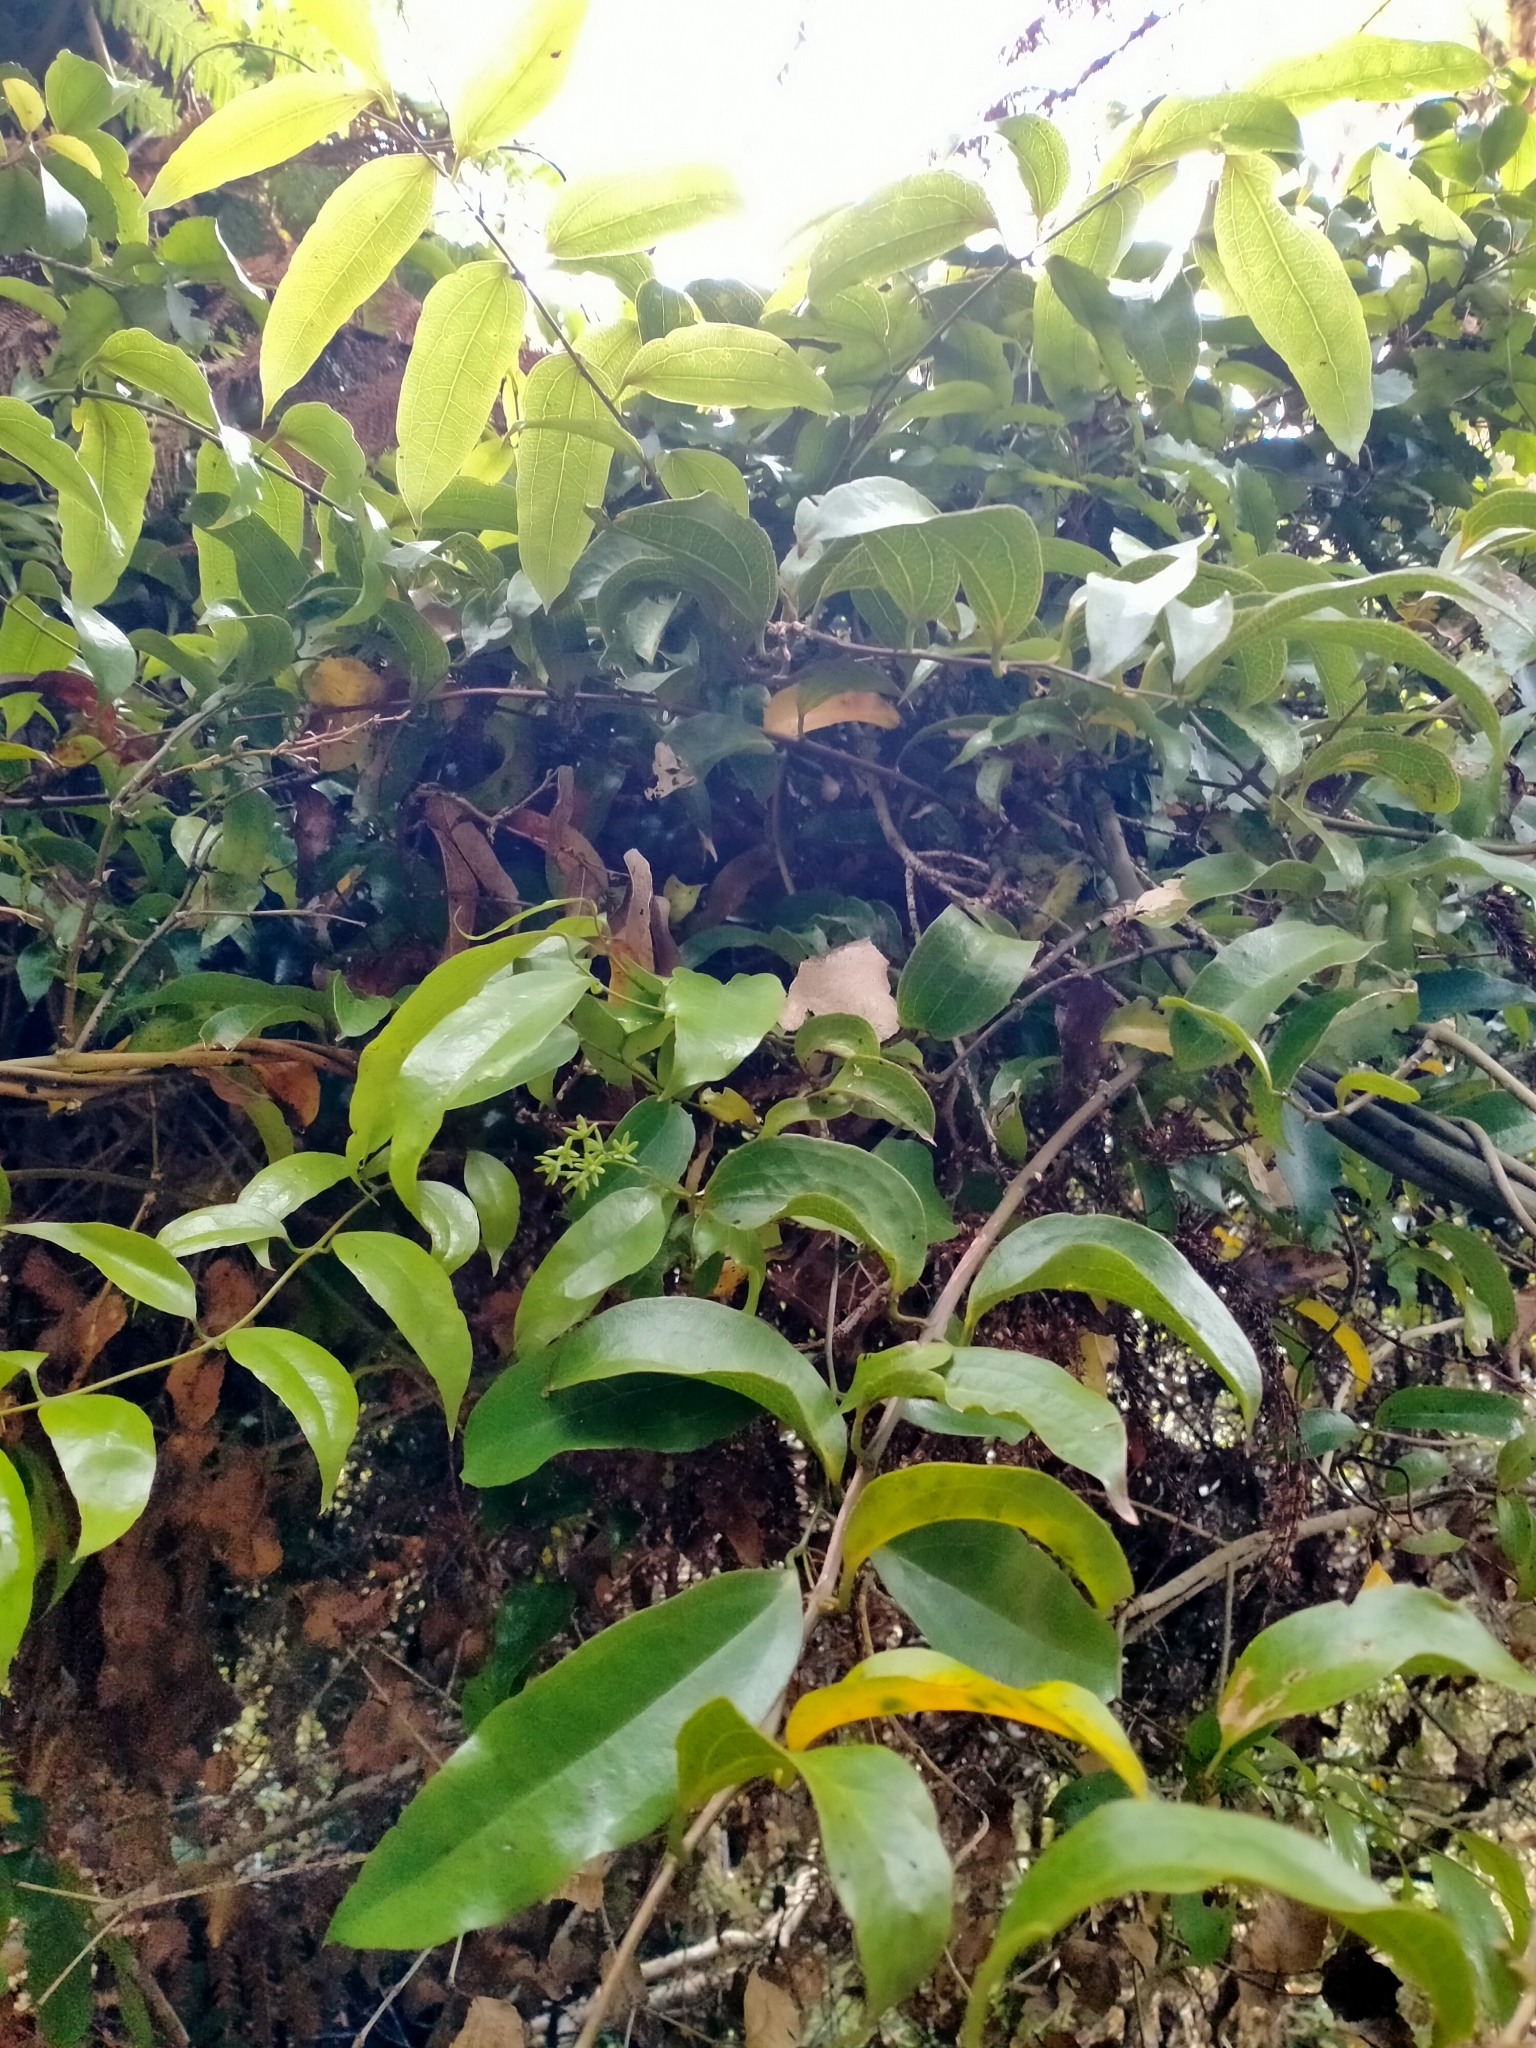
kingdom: Plantae
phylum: Tracheophyta
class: Liliopsida
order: Liliales
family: Ripogonaceae
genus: Ripogonum
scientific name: Ripogonum scandens
